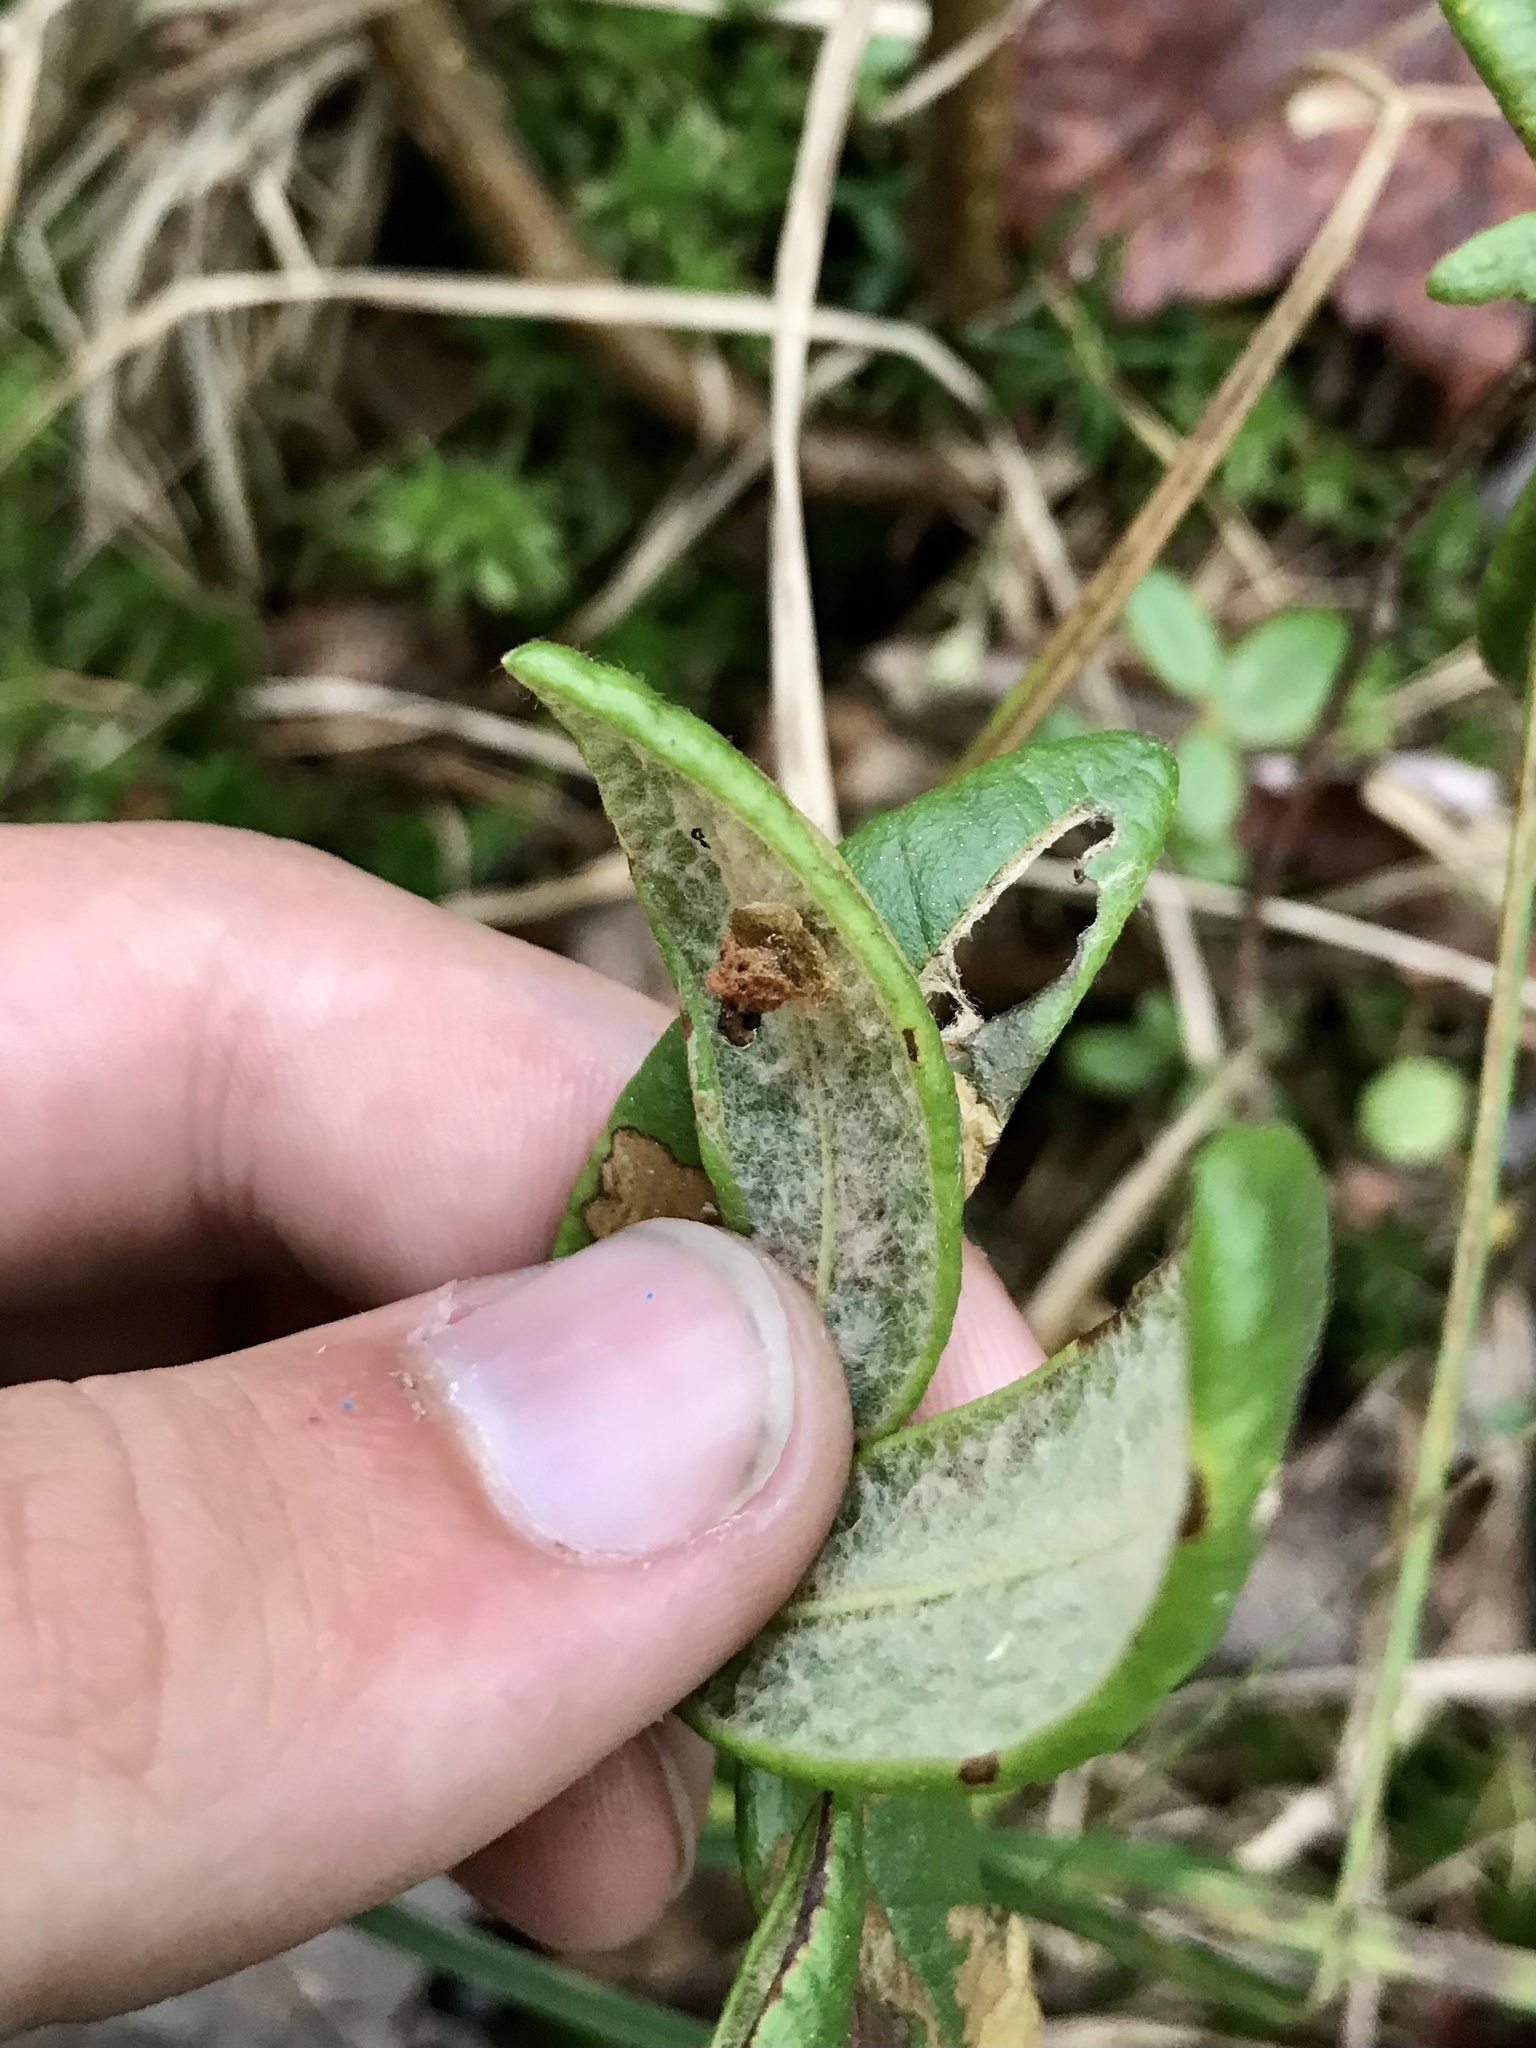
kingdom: Animalia
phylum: Arthropoda
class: Insecta
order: Lepidoptera
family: Coleophoridae
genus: Coleophora
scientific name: Coleophora ledi
